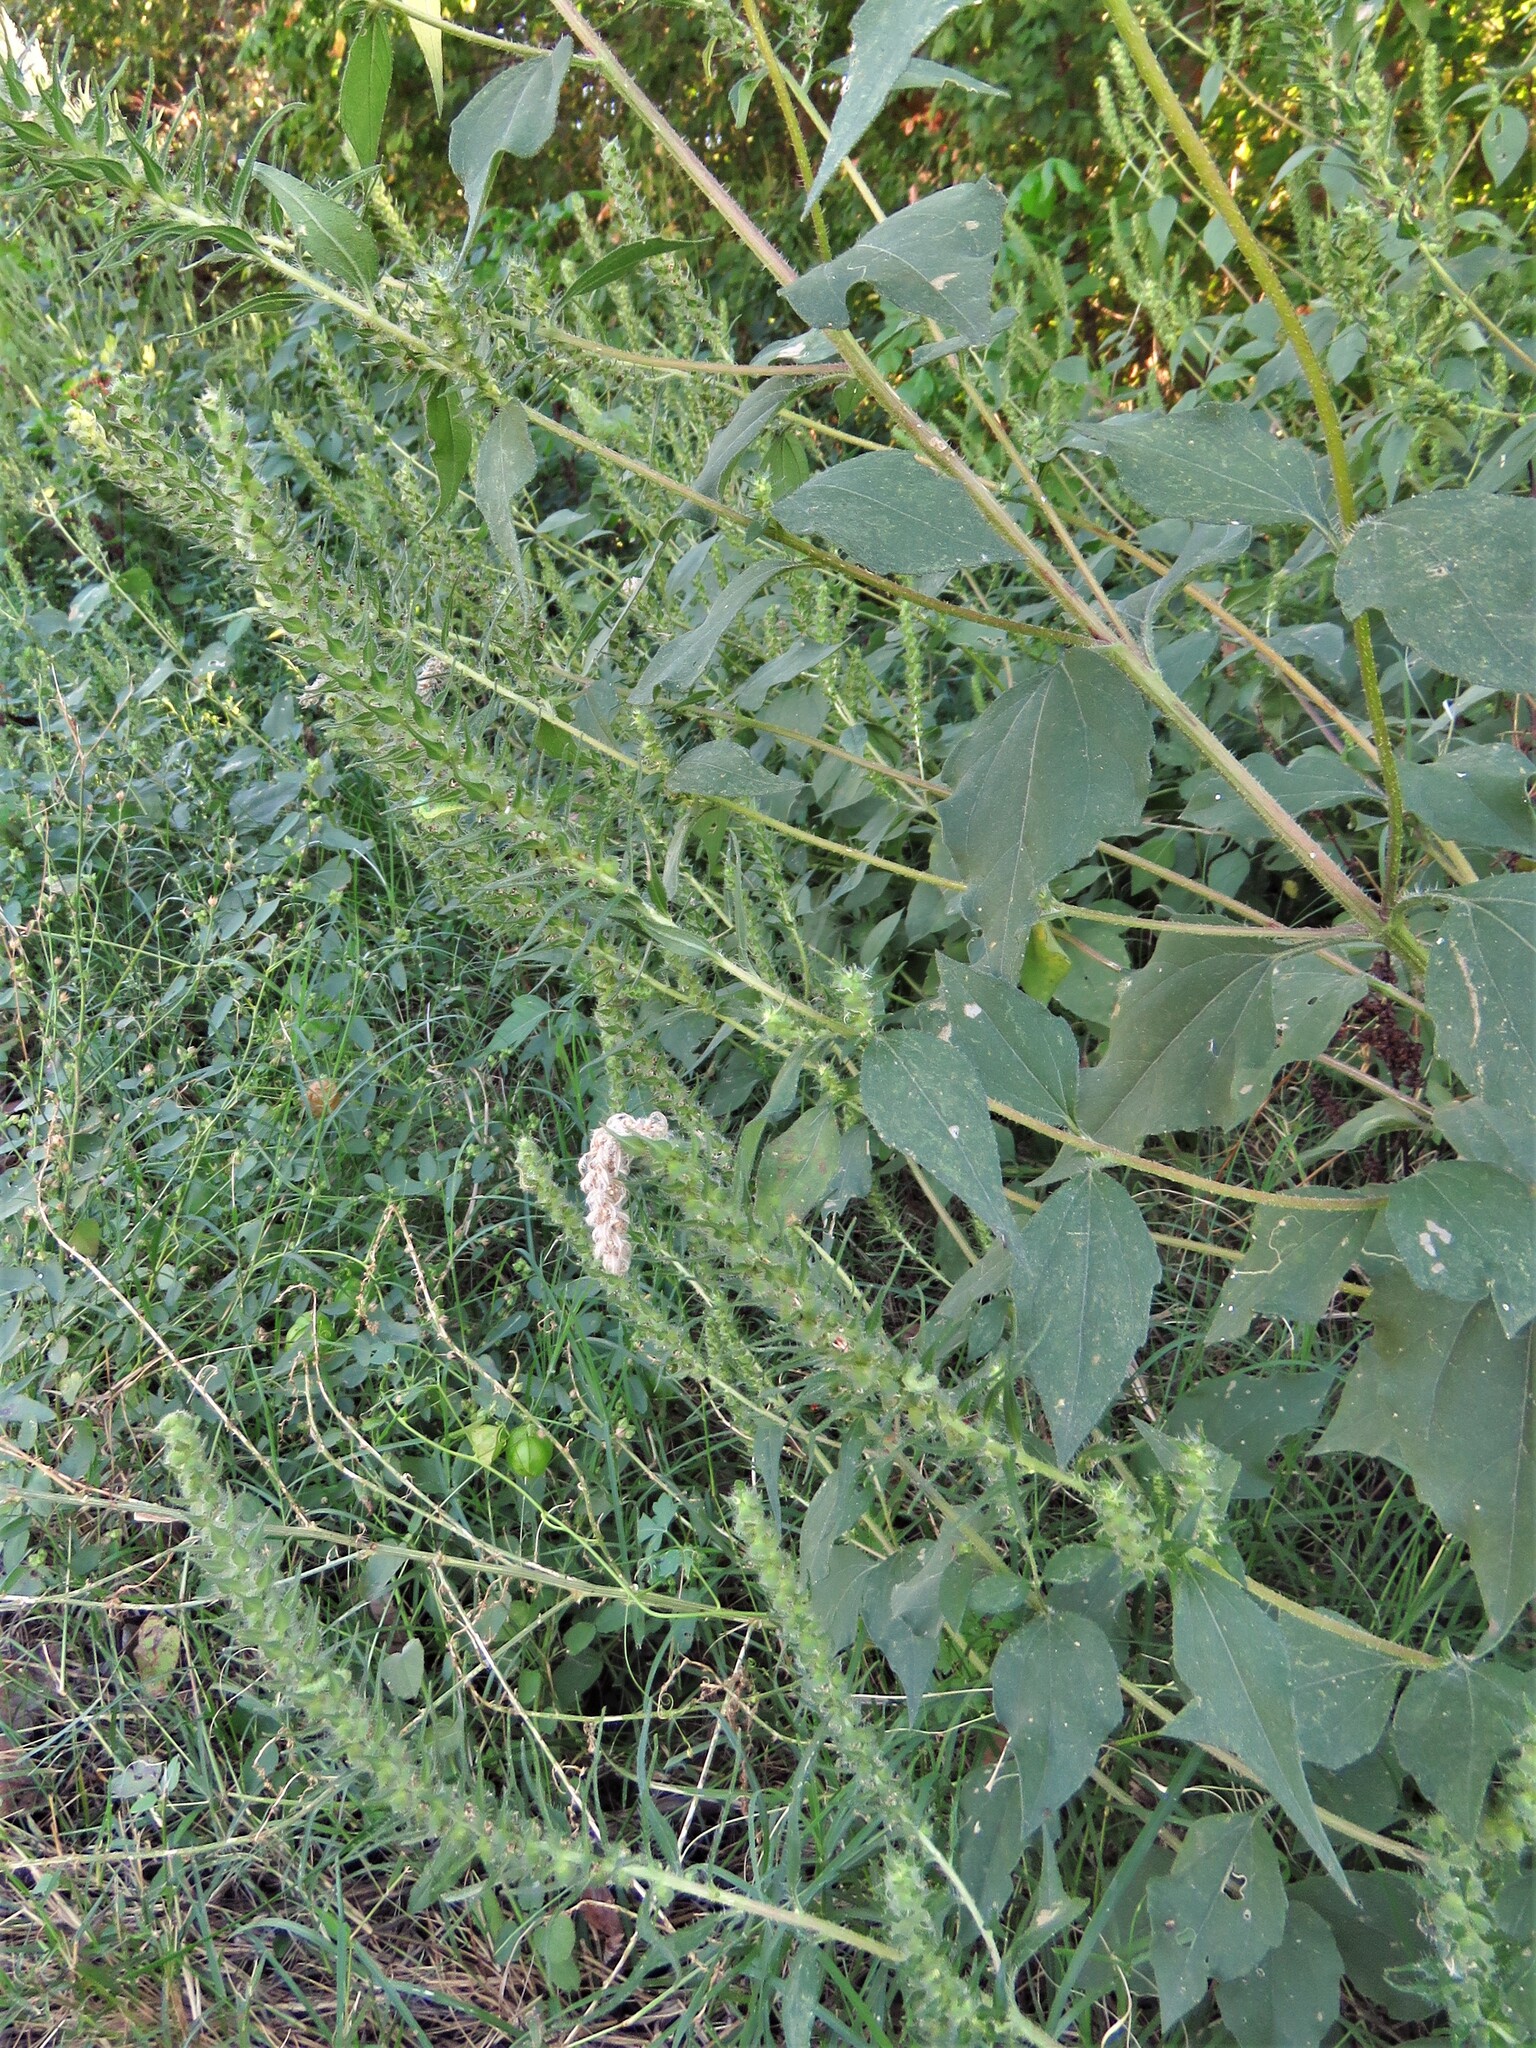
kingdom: Plantae
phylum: Tracheophyta
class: Magnoliopsida
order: Asterales
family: Asteraceae
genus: Iva
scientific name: Iva annua
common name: Marsh-elder
